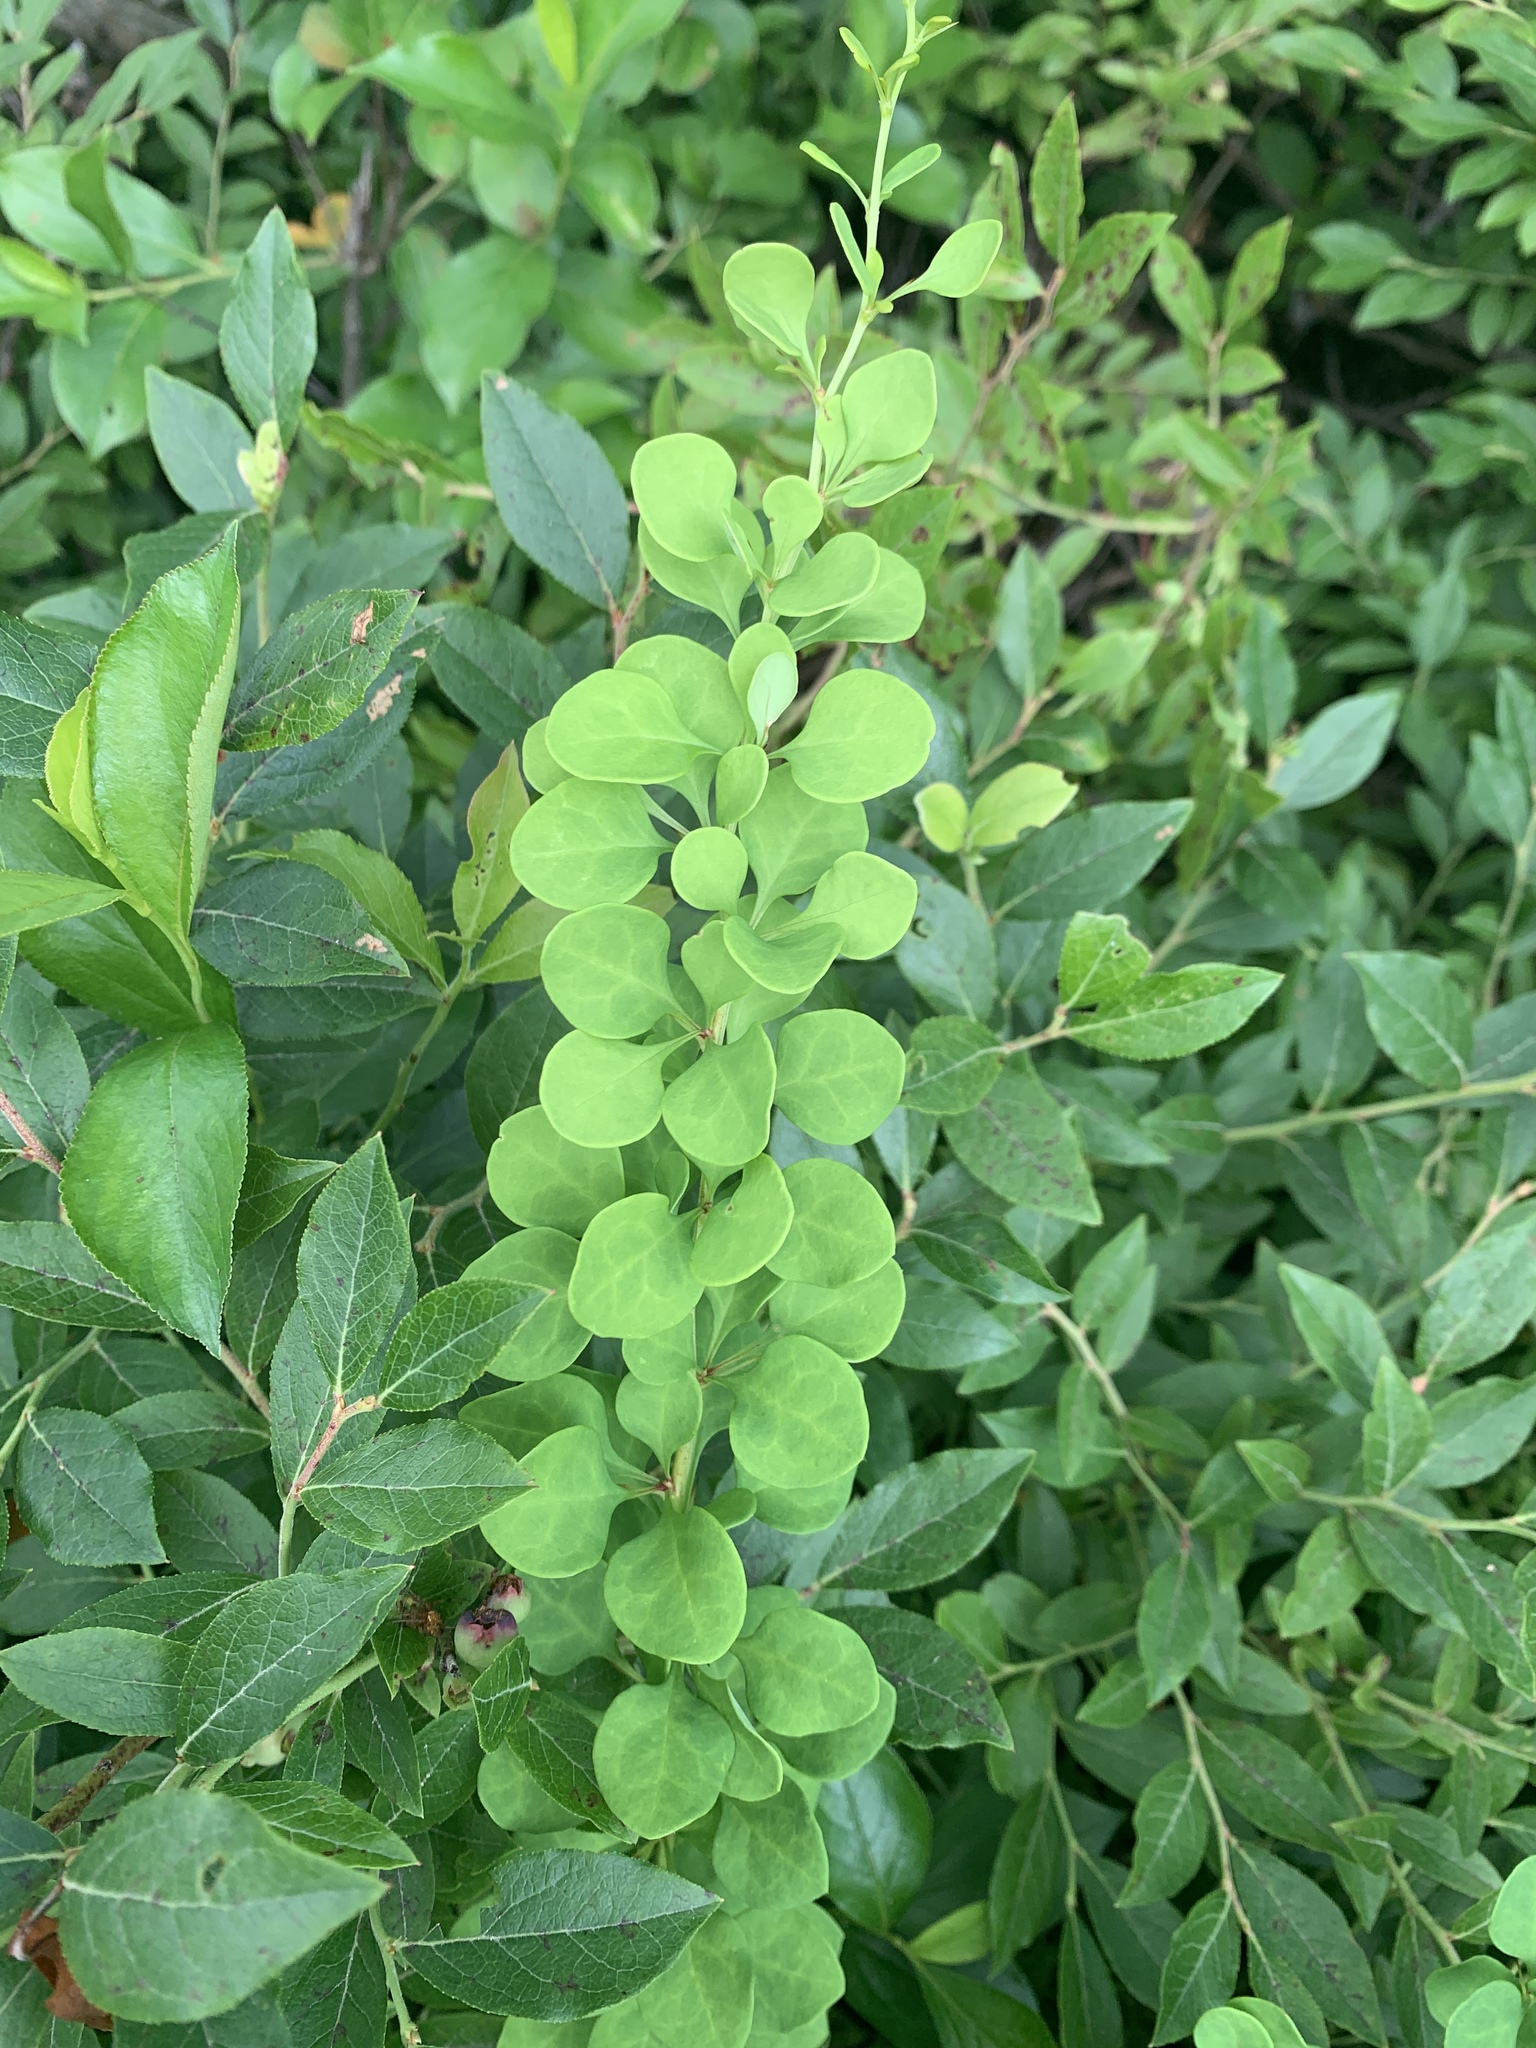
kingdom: Plantae
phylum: Tracheophyta
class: Magnoliopsida
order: Ranunculales
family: Berberidaceae
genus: Berberis
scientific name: Berberis thunbergii
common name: Japanese barberry
